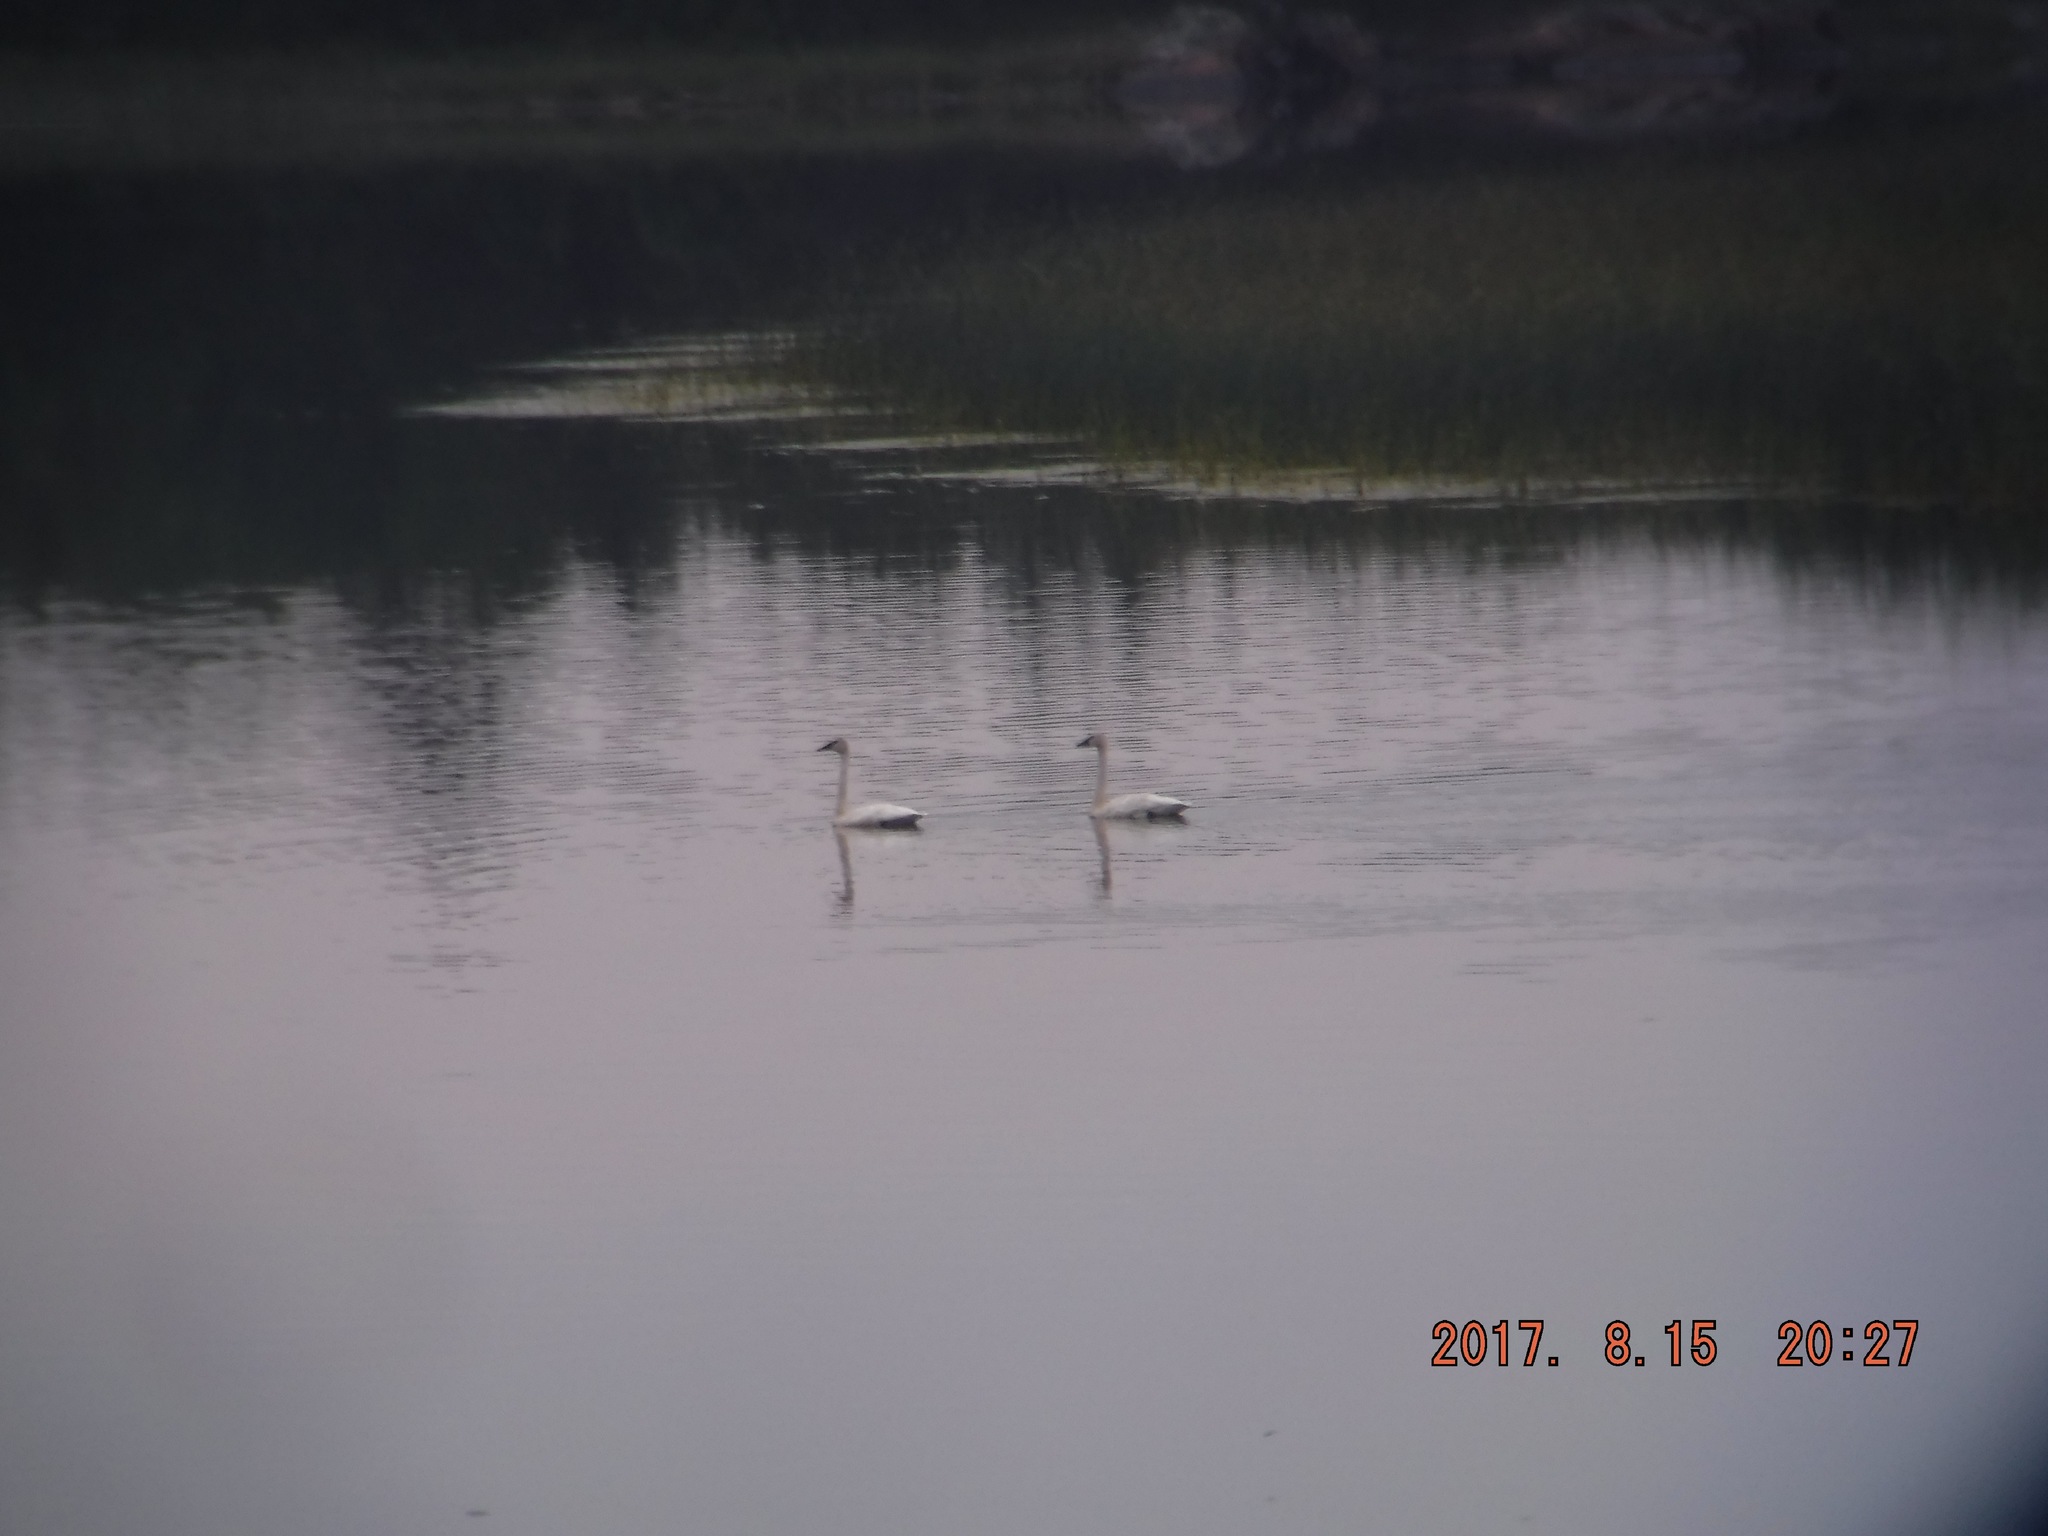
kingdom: Animalia
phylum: Chordata
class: Aves
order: Anseriformes
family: Anatidae
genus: Cygnus
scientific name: Cygnus buccinator
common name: Trumpeter swan
